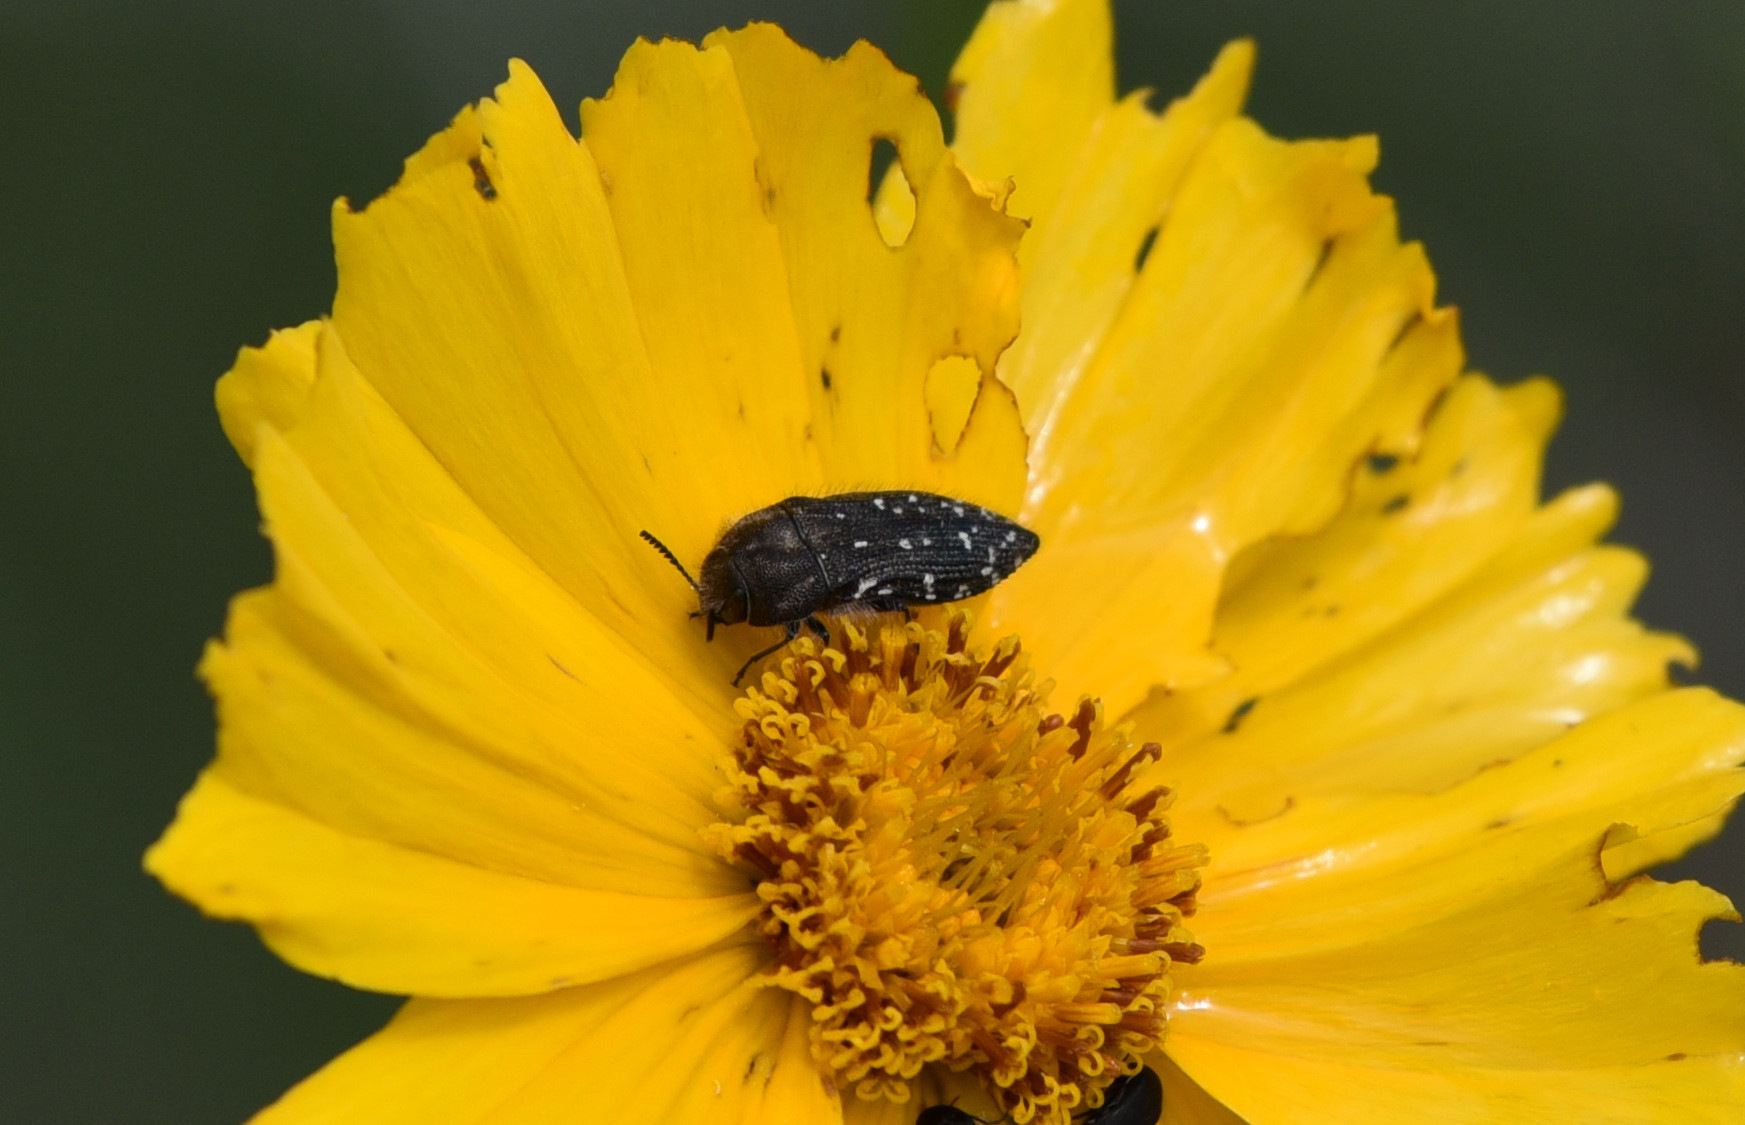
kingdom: Animalia
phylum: Arthropoda
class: Insecta
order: Coleoptera
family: Buprestidae
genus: Acmaeodera
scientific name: Acmaeodera ornatoides
